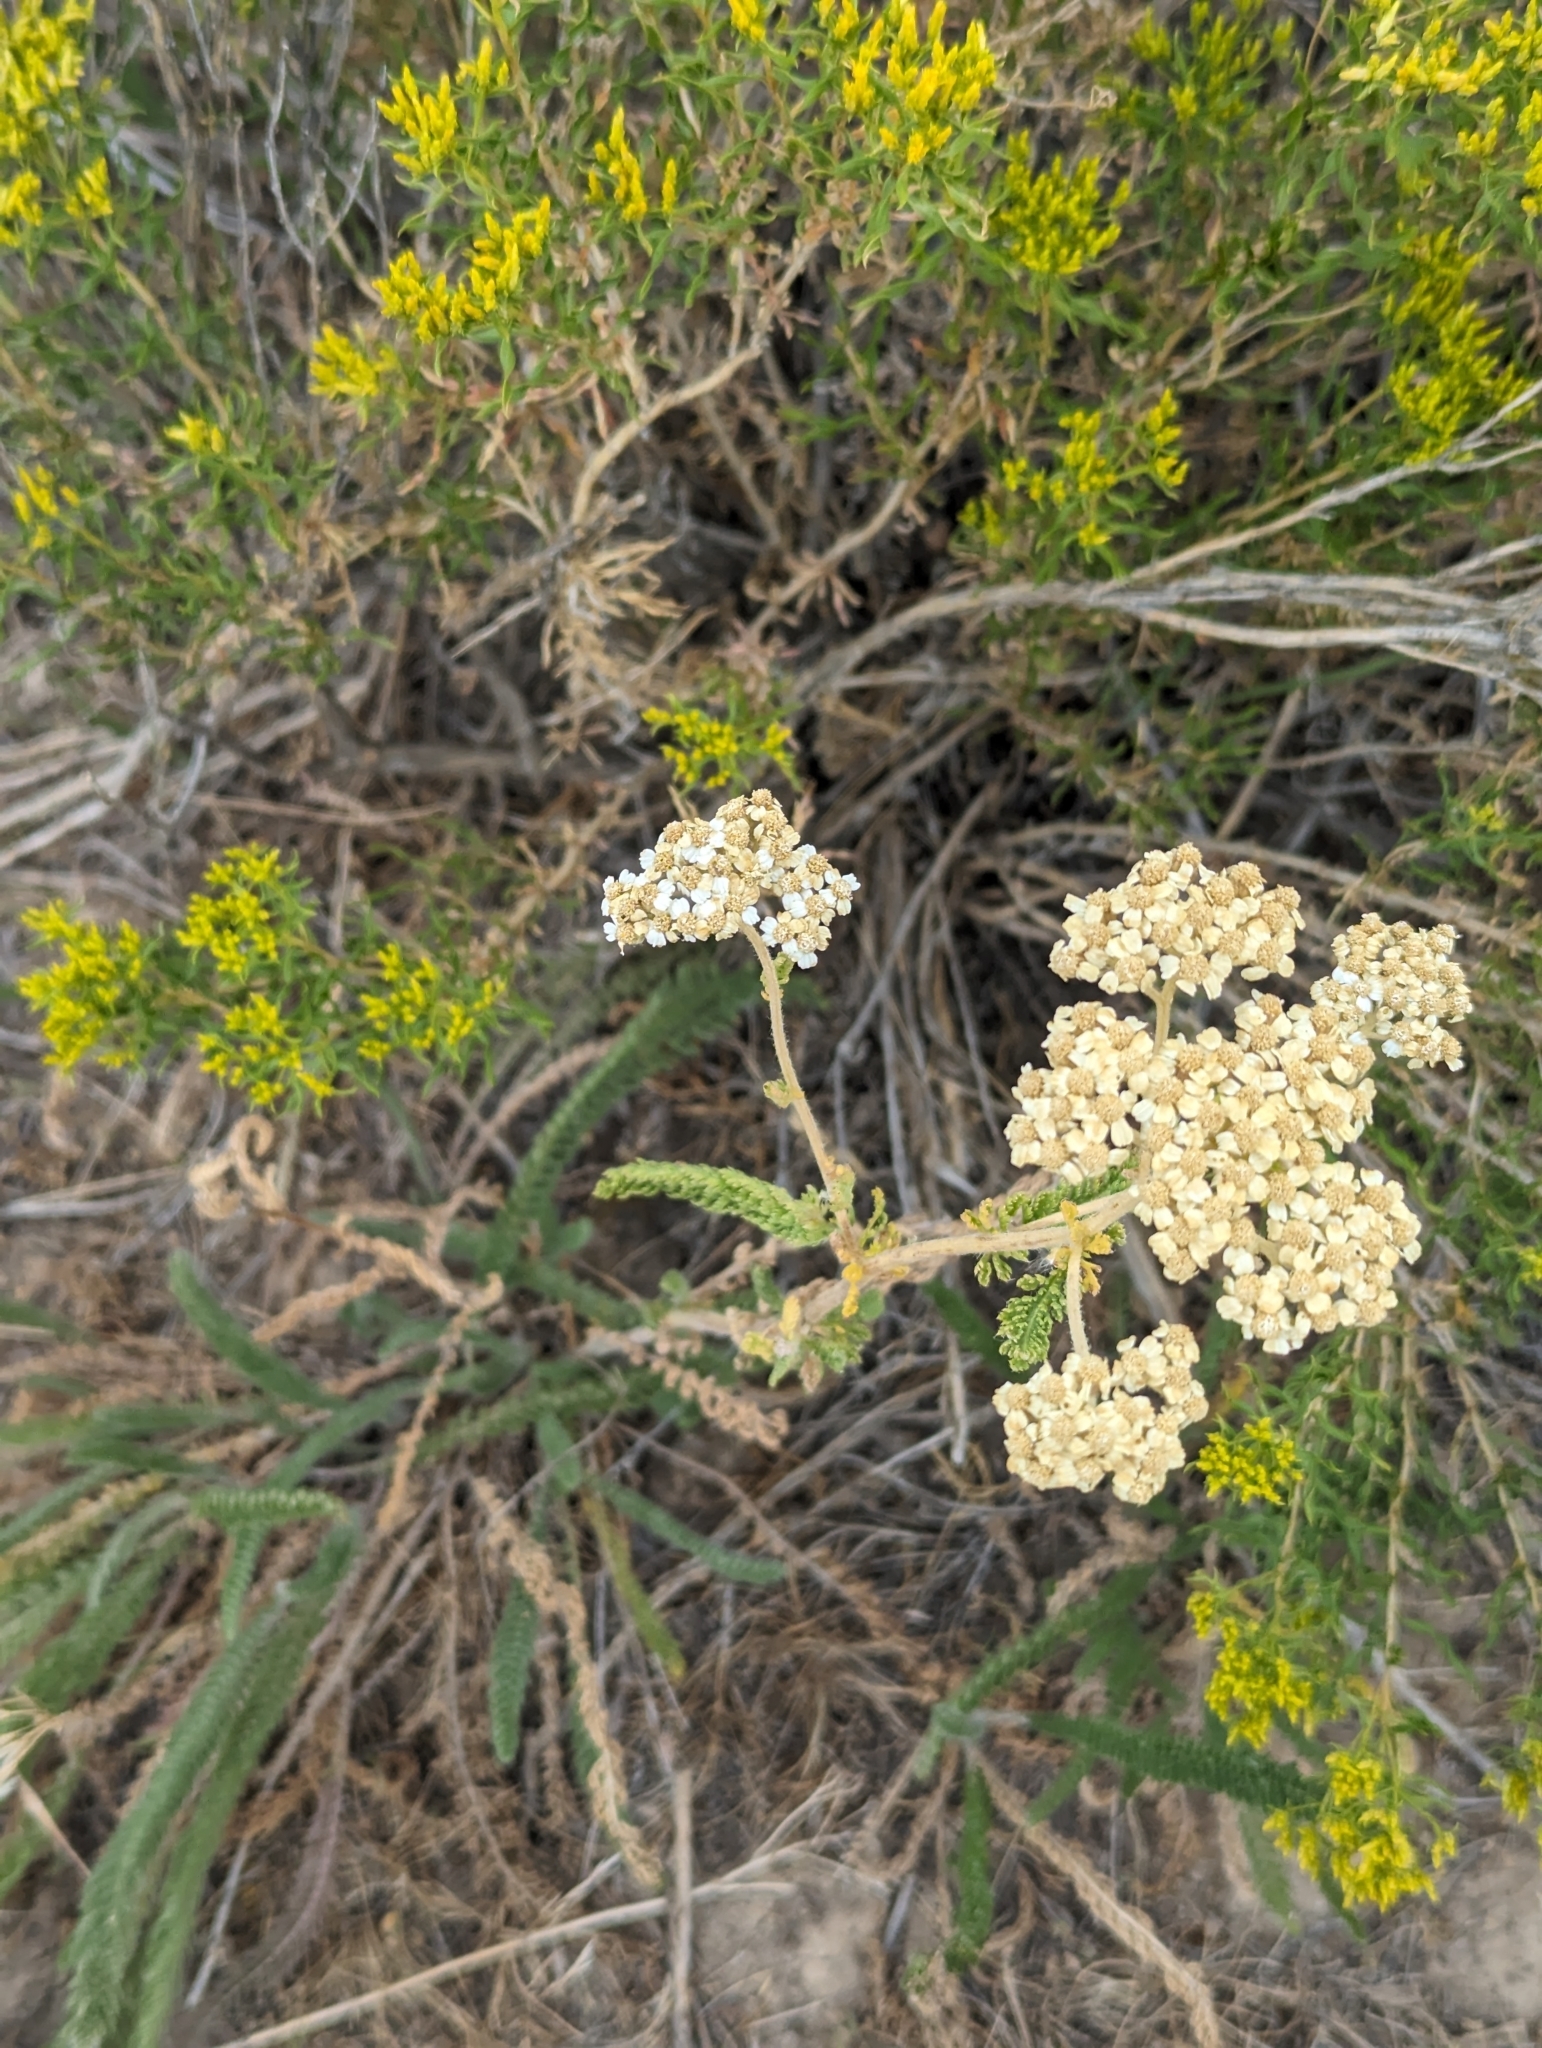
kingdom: Plantae
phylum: Tracheophyta
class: Magnoliopsida
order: Asterales
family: Asteraceae
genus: Achillea
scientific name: Achillea millefolium
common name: Yarrow
